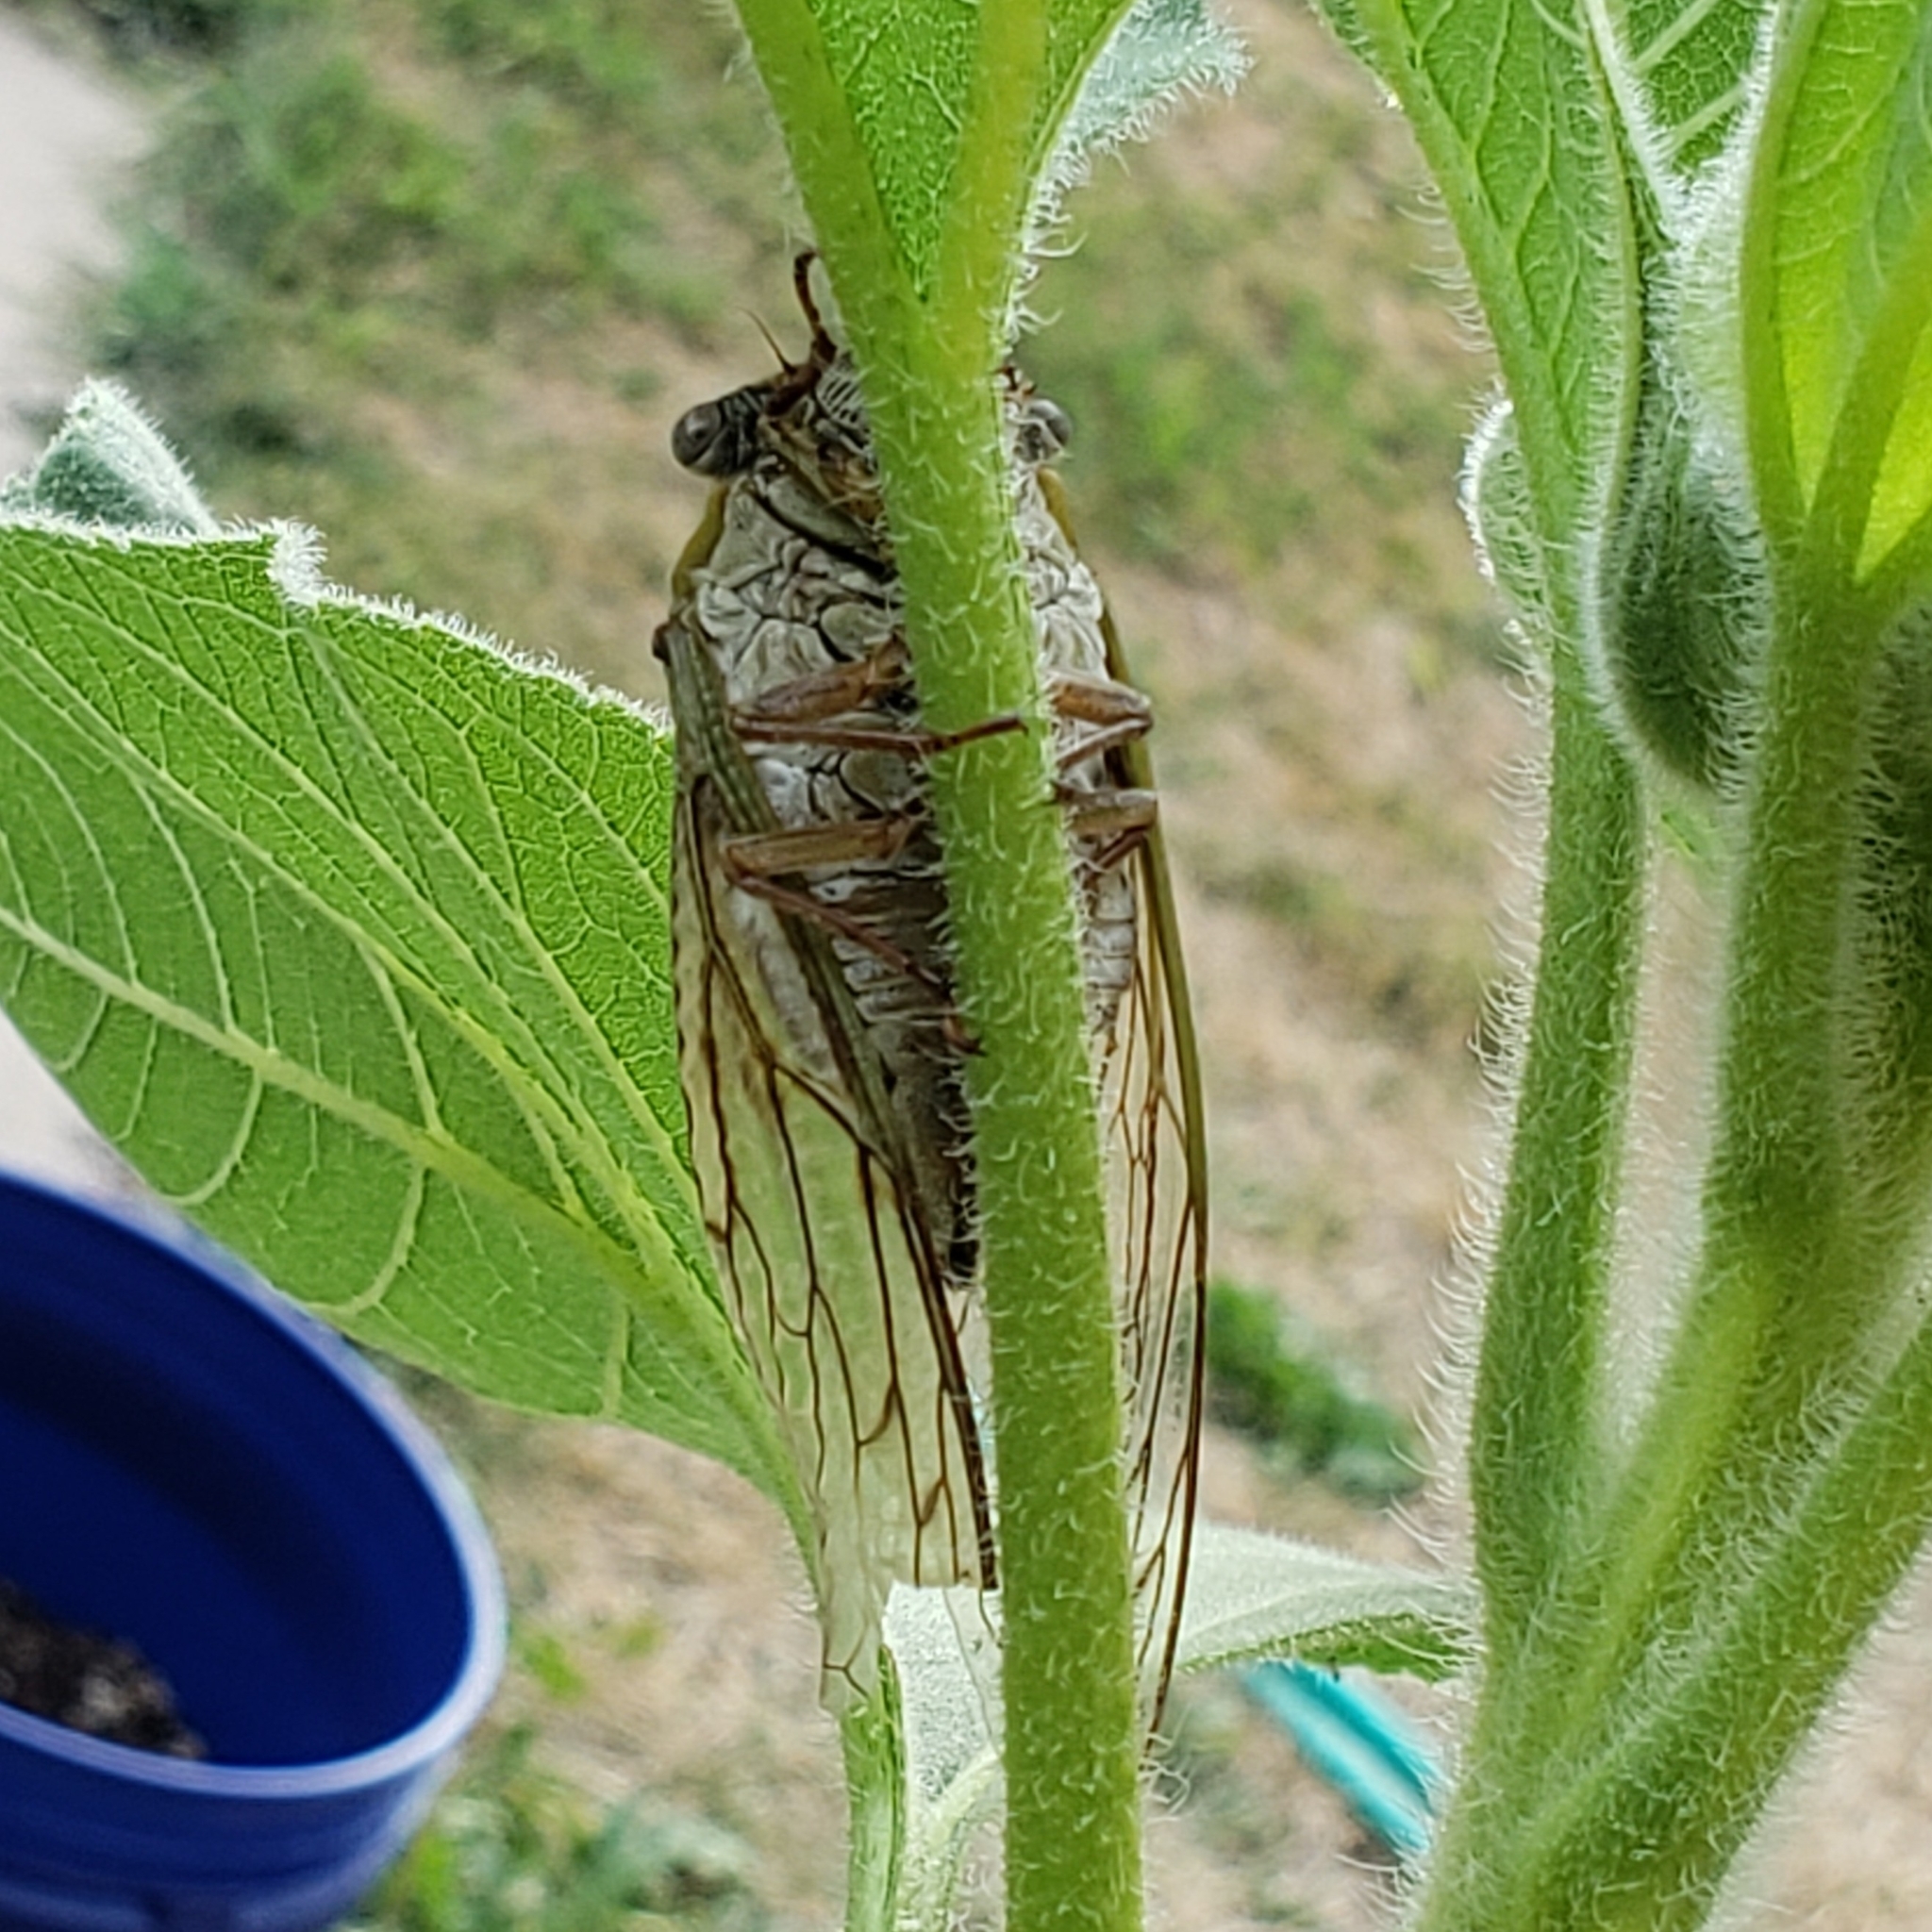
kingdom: Animalia
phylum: Arthropoda
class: Insecta
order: Hemiptera
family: Cicadidae
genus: Megatibicen
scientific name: Megatibicen dealbatus
